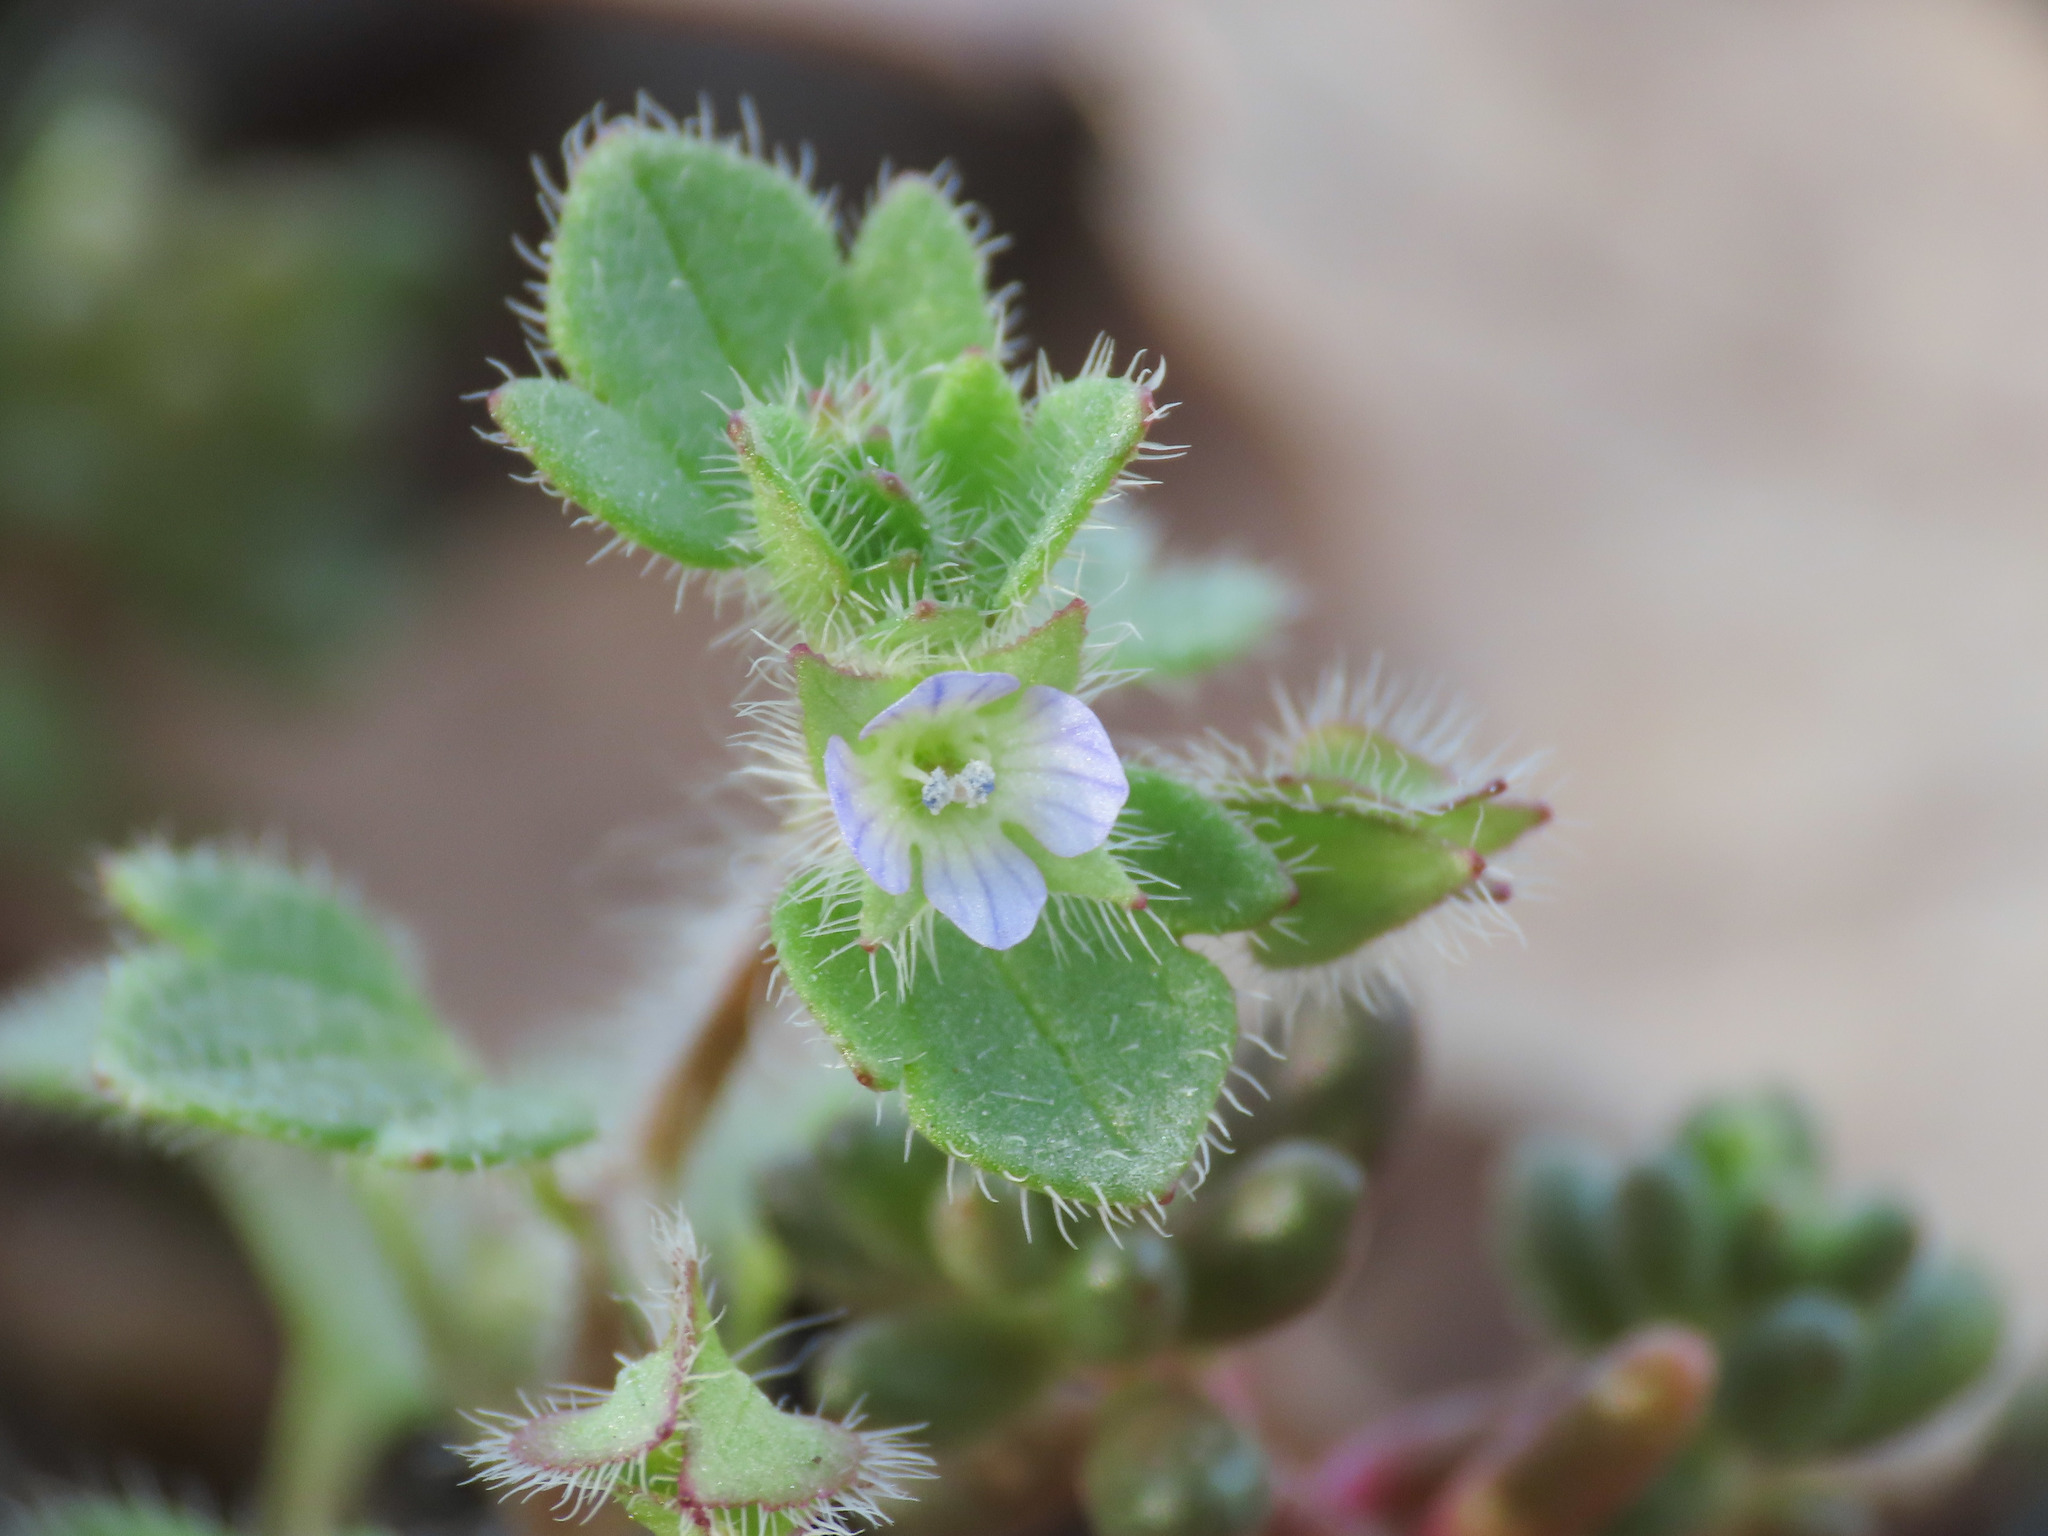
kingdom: Plantae
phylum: Tracheophyta
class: Magnoliopsida
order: Lamiales
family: Plantaginaceae
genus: Veronica
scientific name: Veronica hederifolia
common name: Ivy-leaved speedwell
